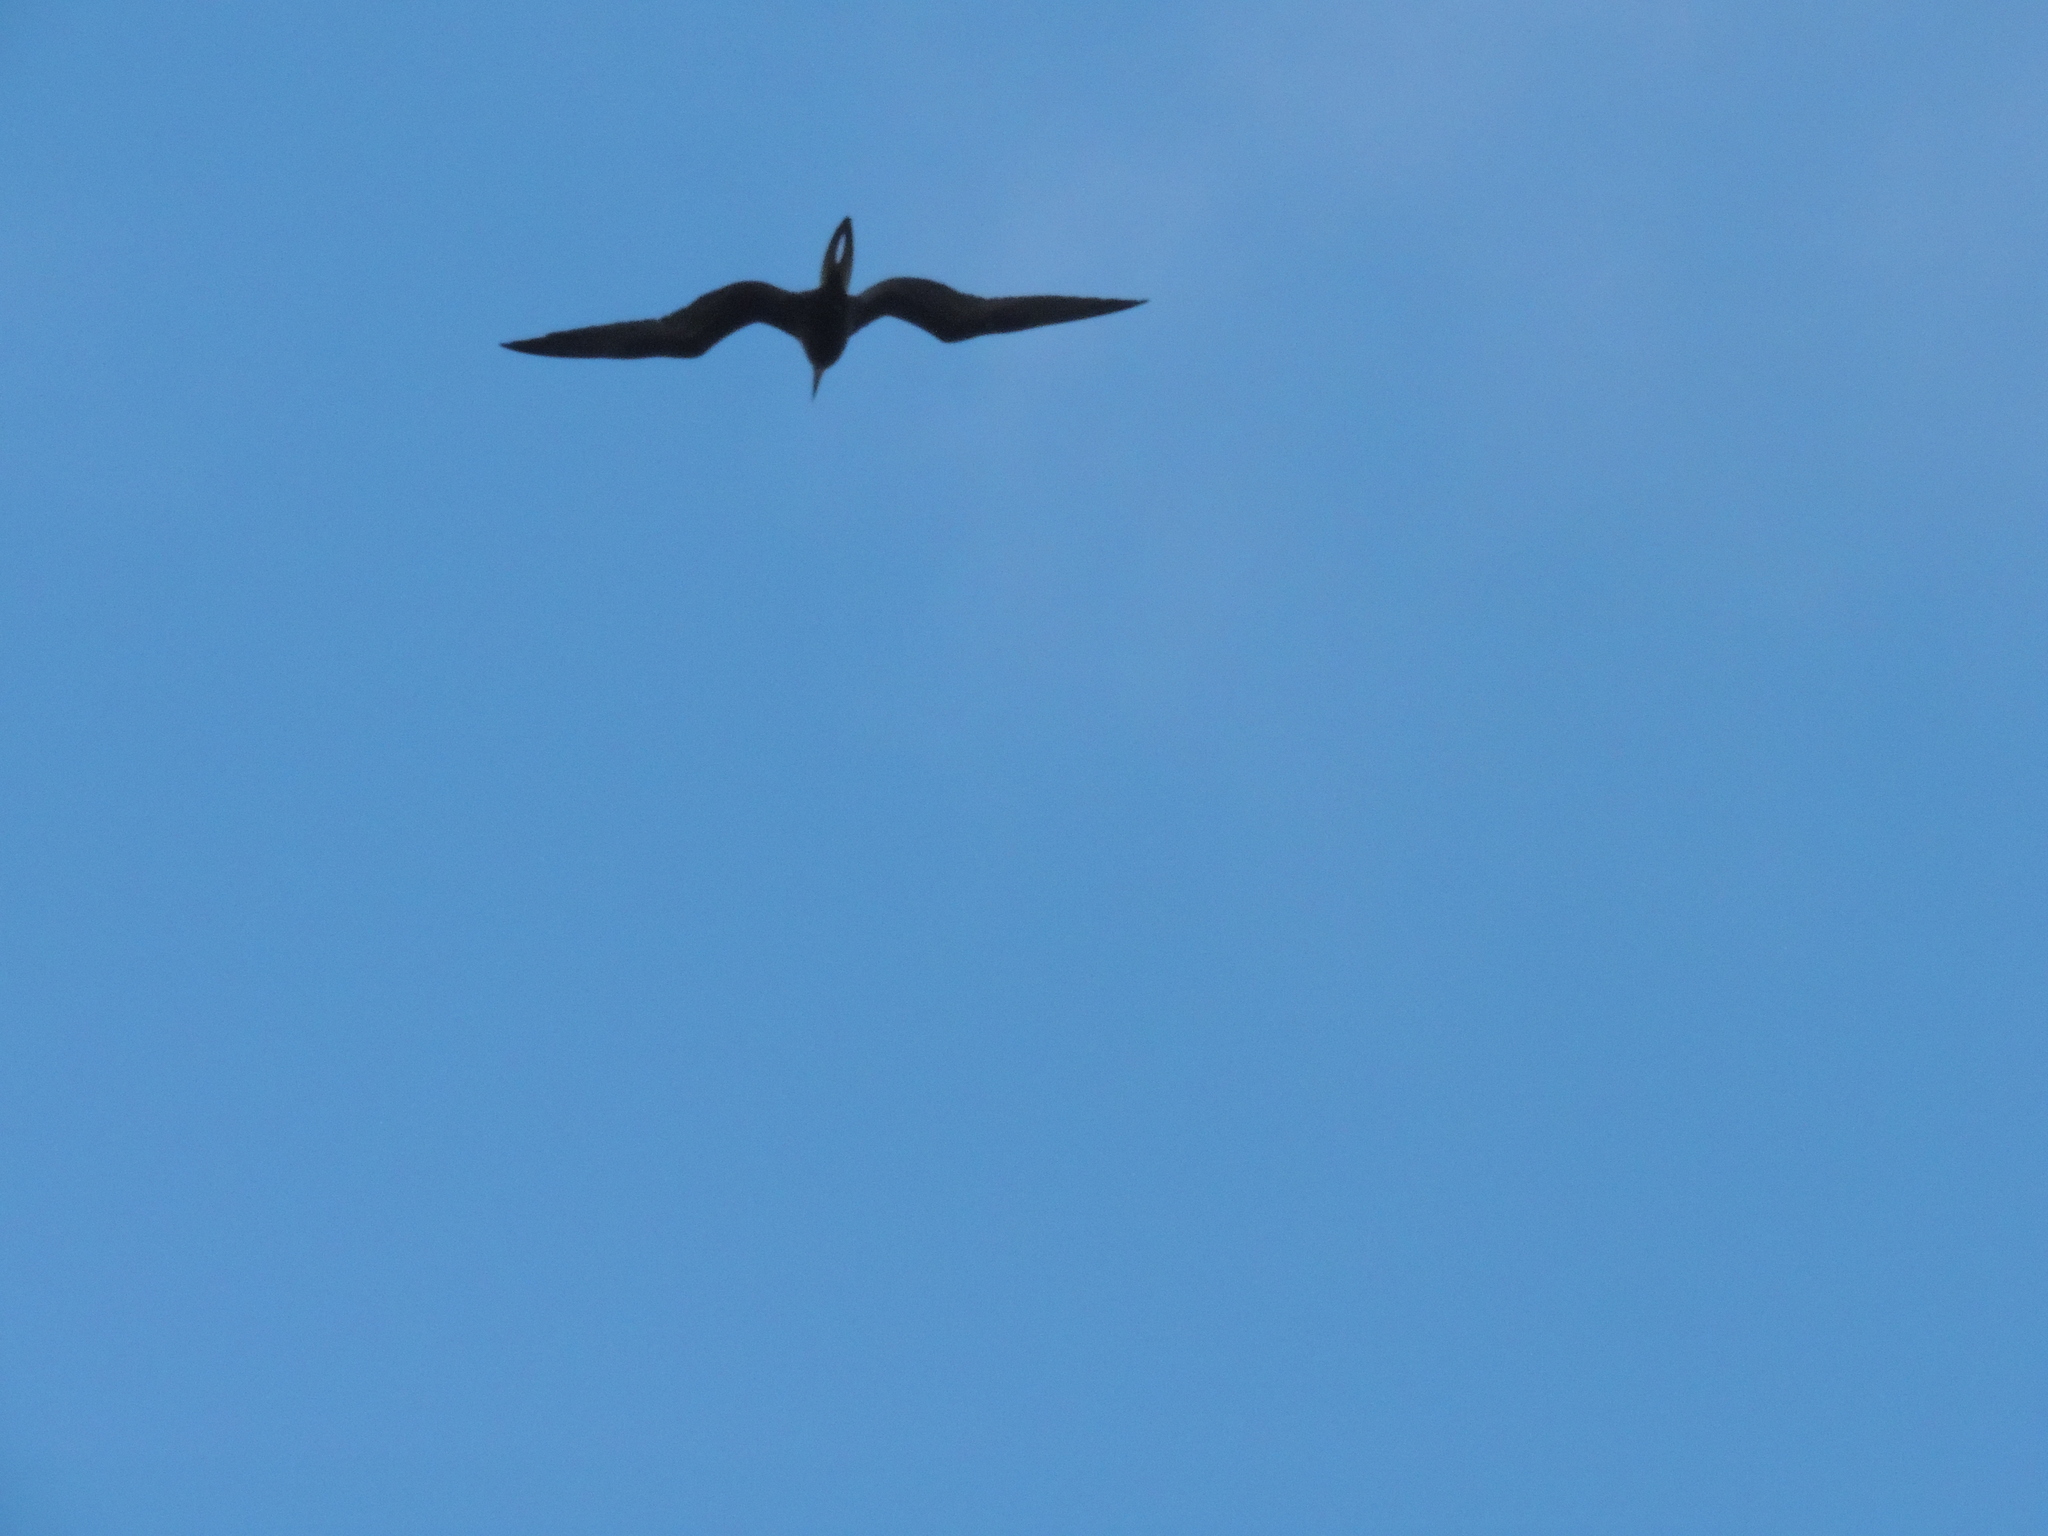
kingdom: Animalia
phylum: Chordata
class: Aves
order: Suliformes
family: Fregatidae
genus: Fregata
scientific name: Fregata
